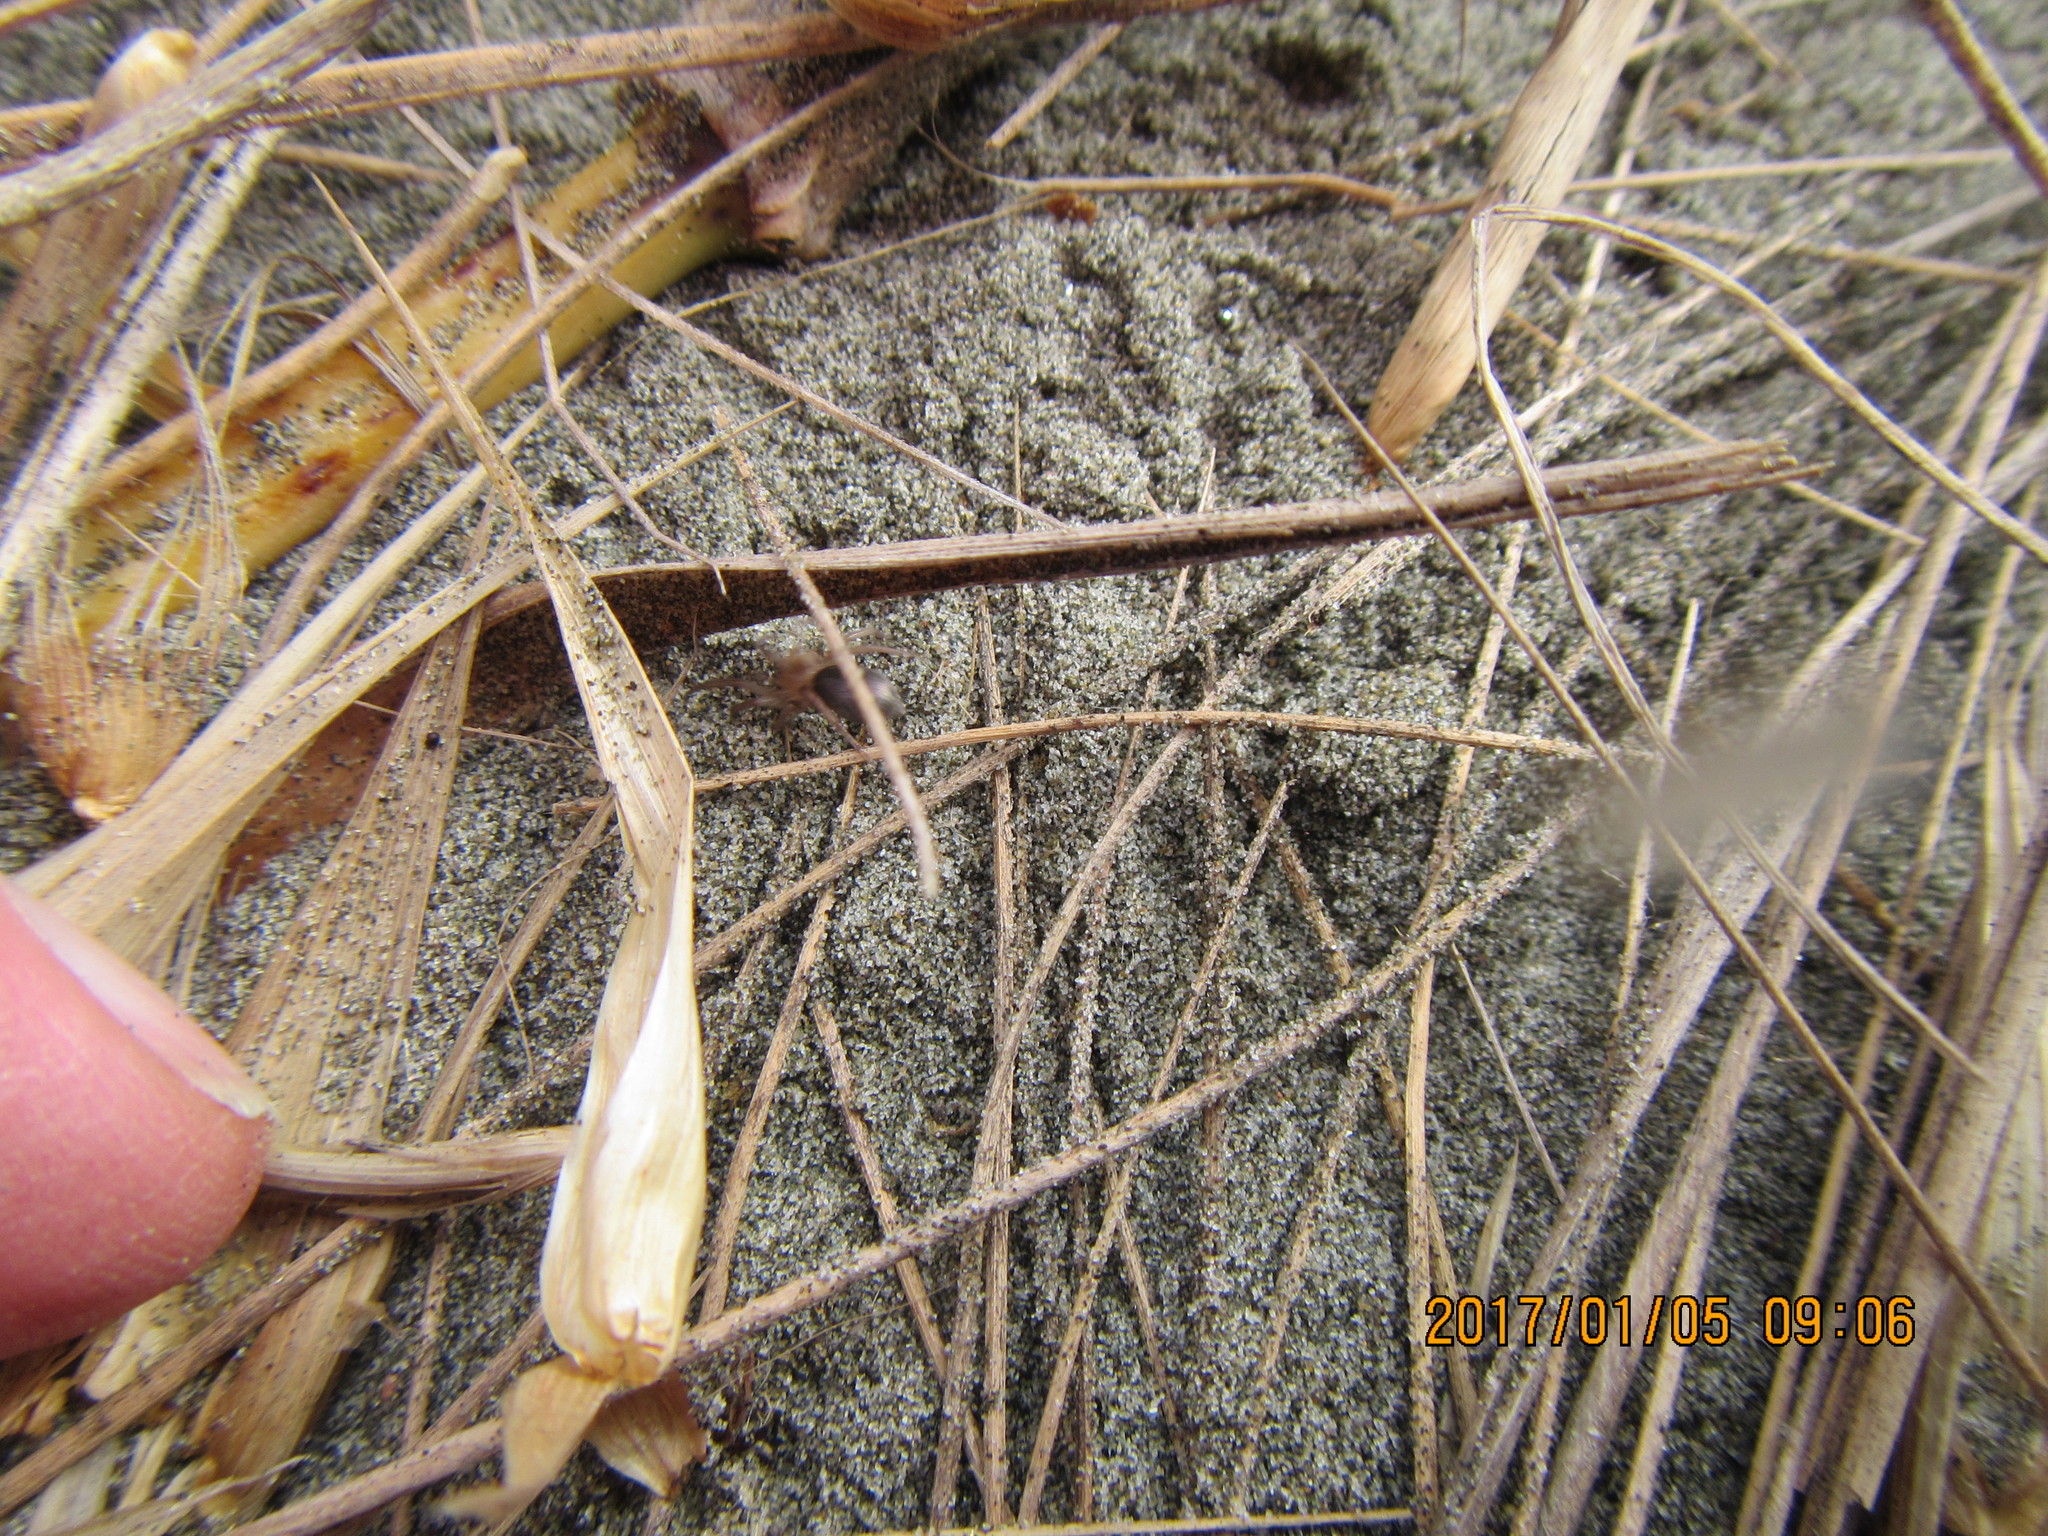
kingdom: Animalia
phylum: Arthropoda
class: Arachnida
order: Araneae
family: Gnaphosidae
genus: Anzacia
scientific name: Anzacia gemmea
